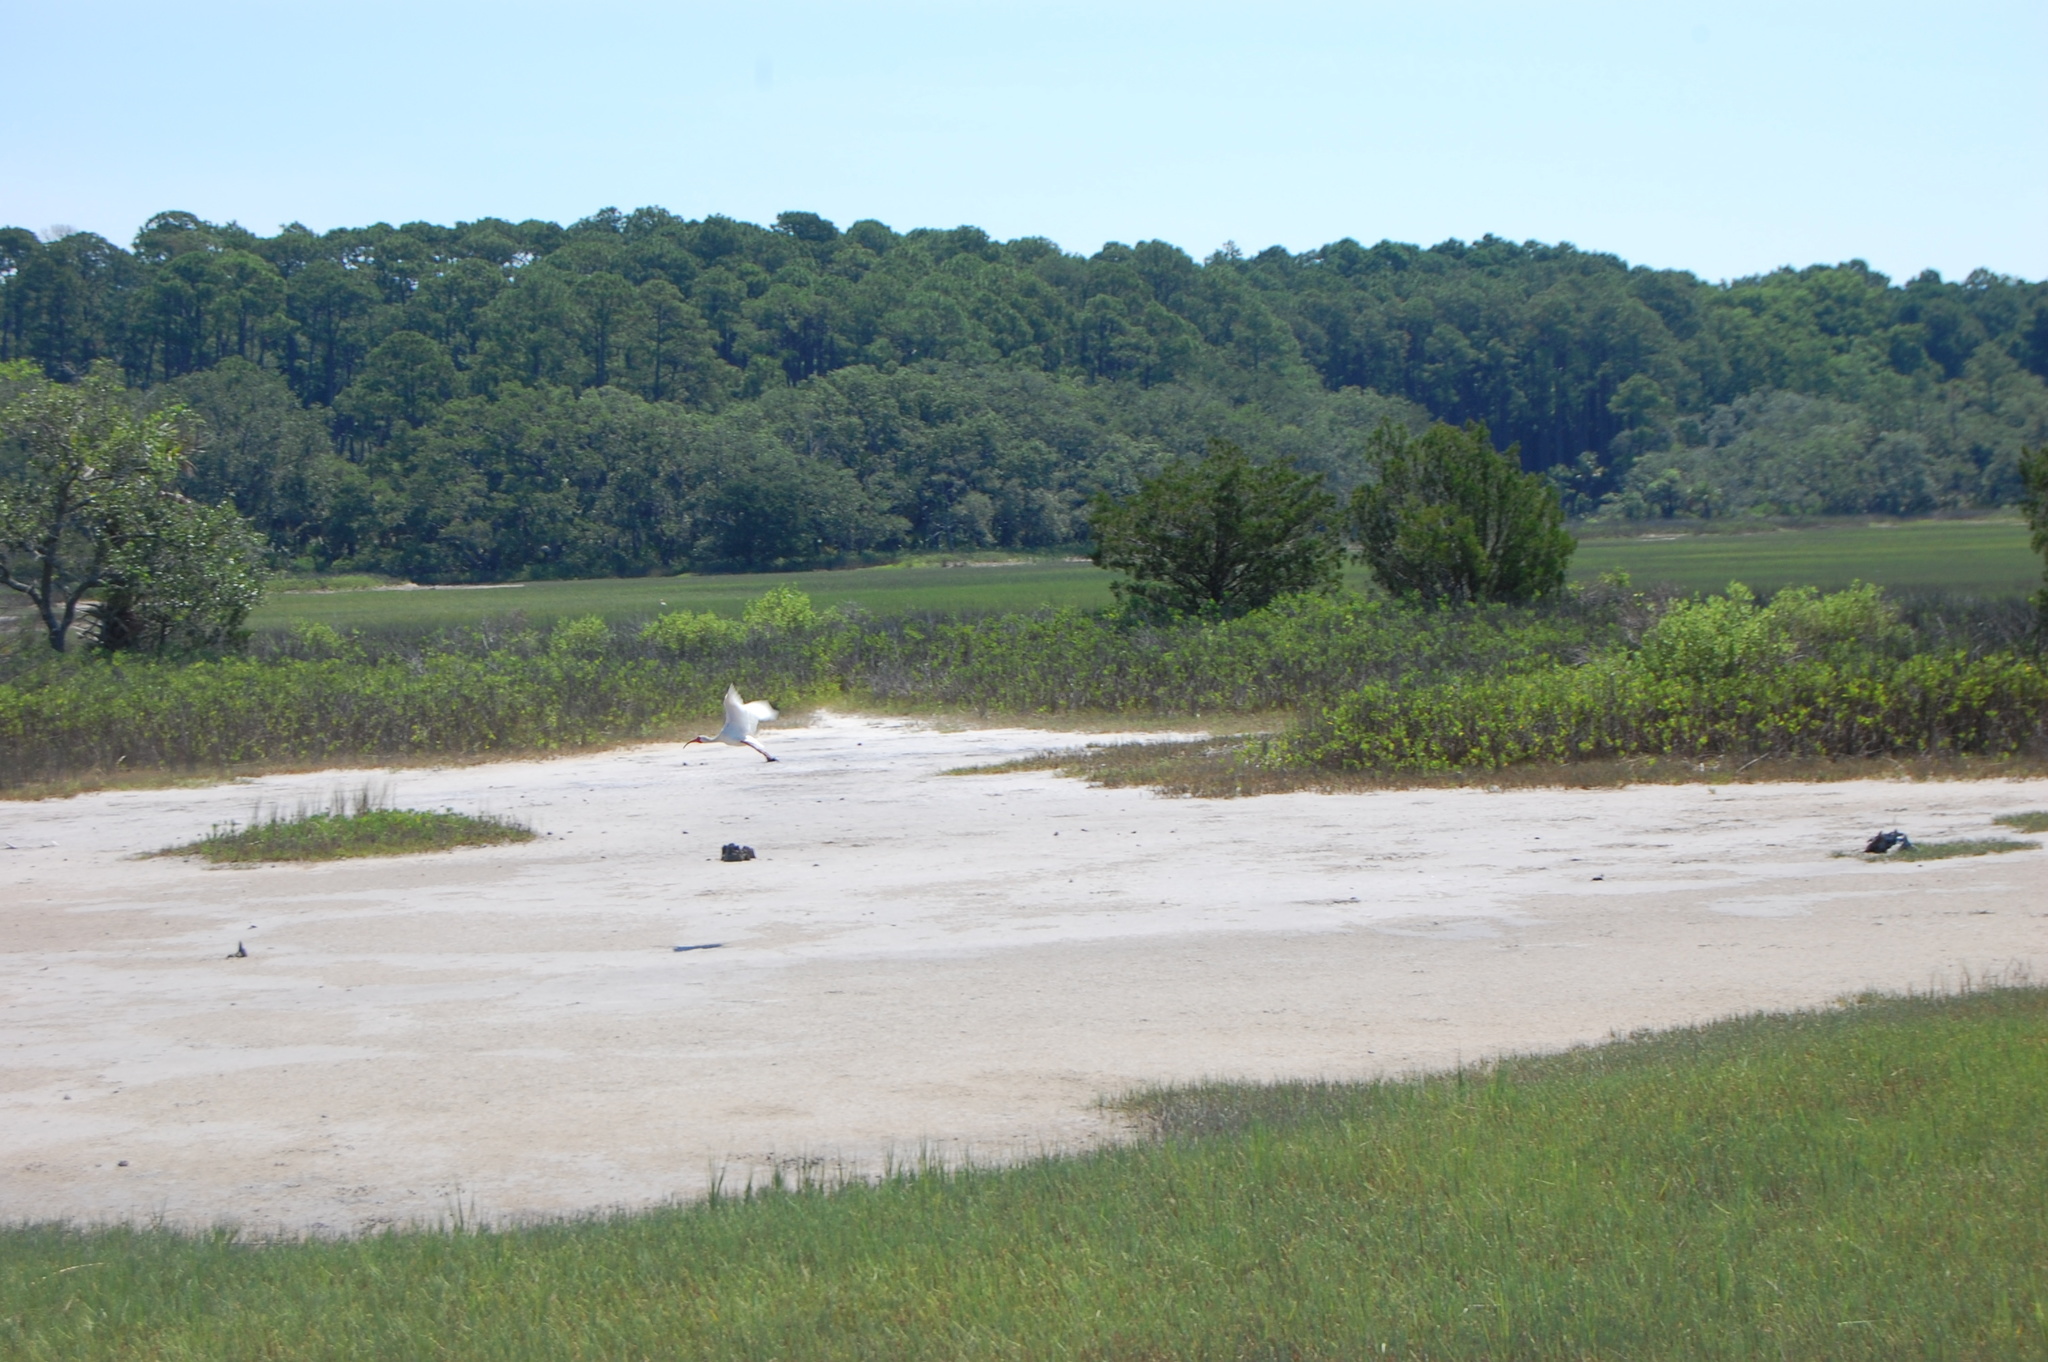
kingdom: Animalia
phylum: Chordata
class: Aves
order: Pelecaniformes
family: Threskiornithidae
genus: Eudocimus
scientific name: Eudocimus albus
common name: White ibis
